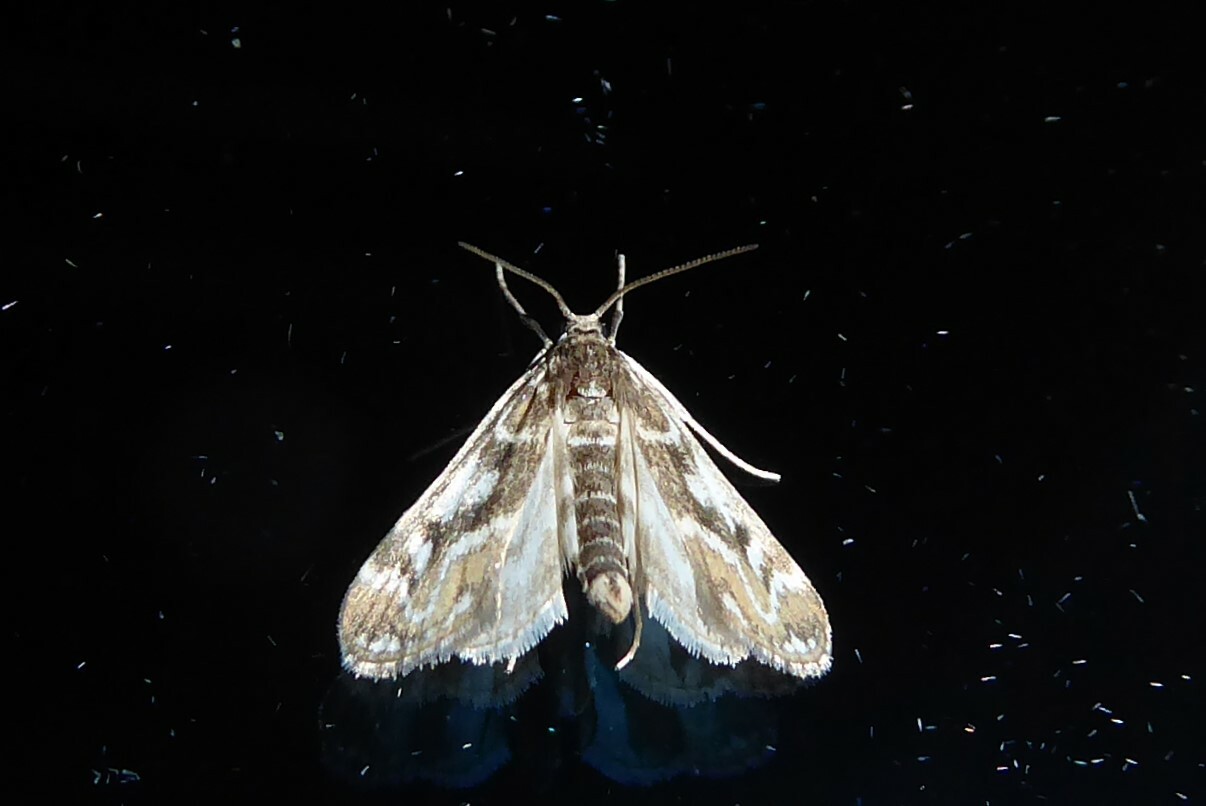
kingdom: Animalia
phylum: Arthropoda
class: Insecta
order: Lepidoptera
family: Crambidae
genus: Hygraula
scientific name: Hygraula nitens
